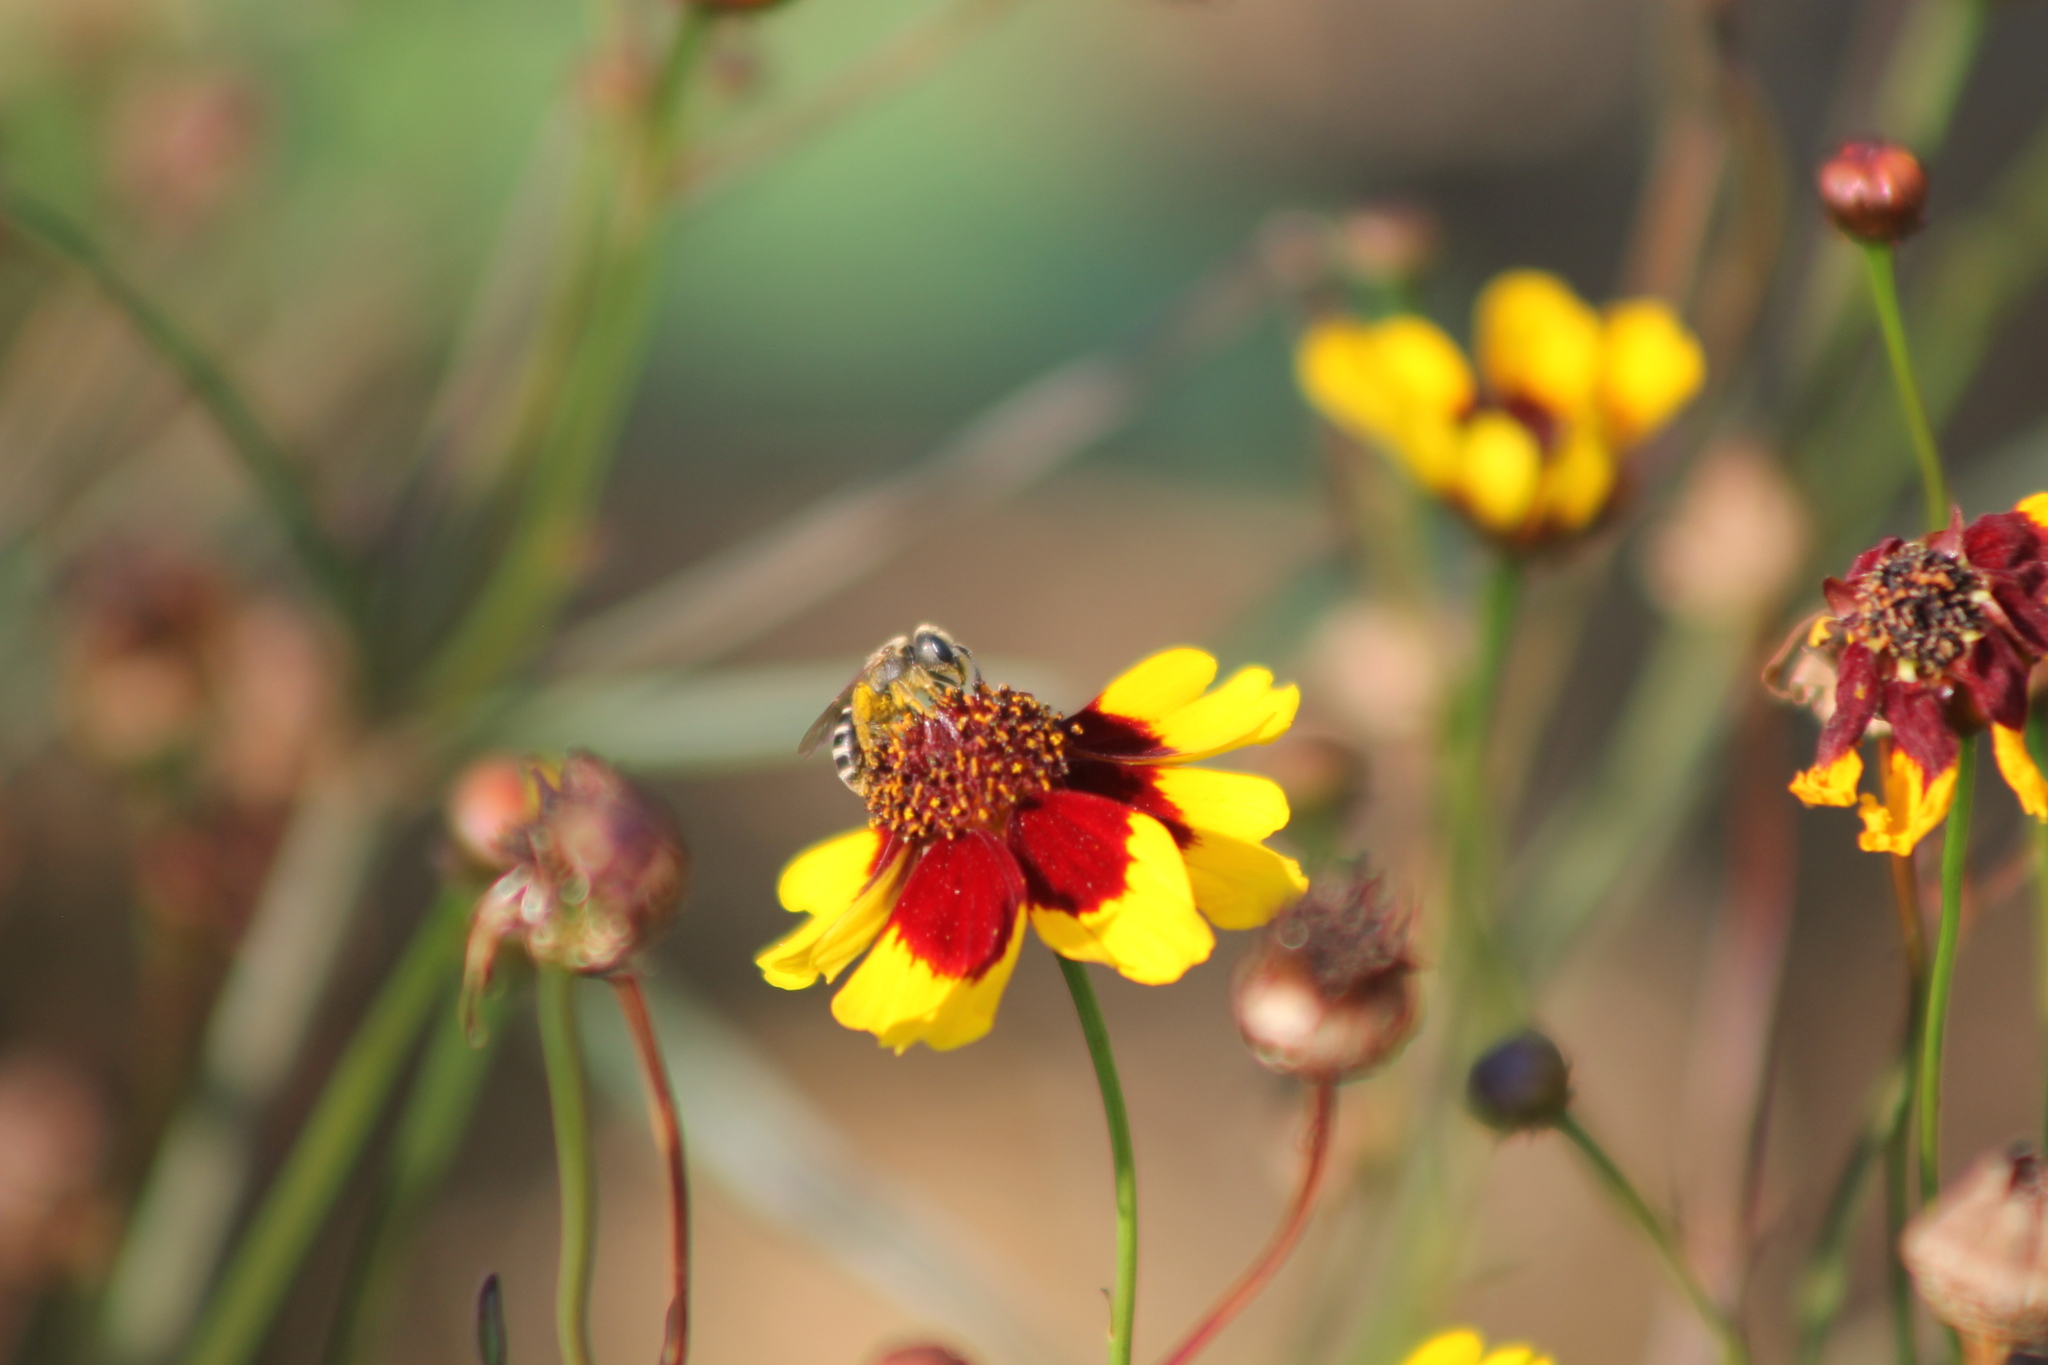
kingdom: Animalia
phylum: Arthropoda
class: Insecta
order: Hymenoptera
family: Halictidae
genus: Halictus
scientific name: Halictus ligatus
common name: Ligated furrow bee
